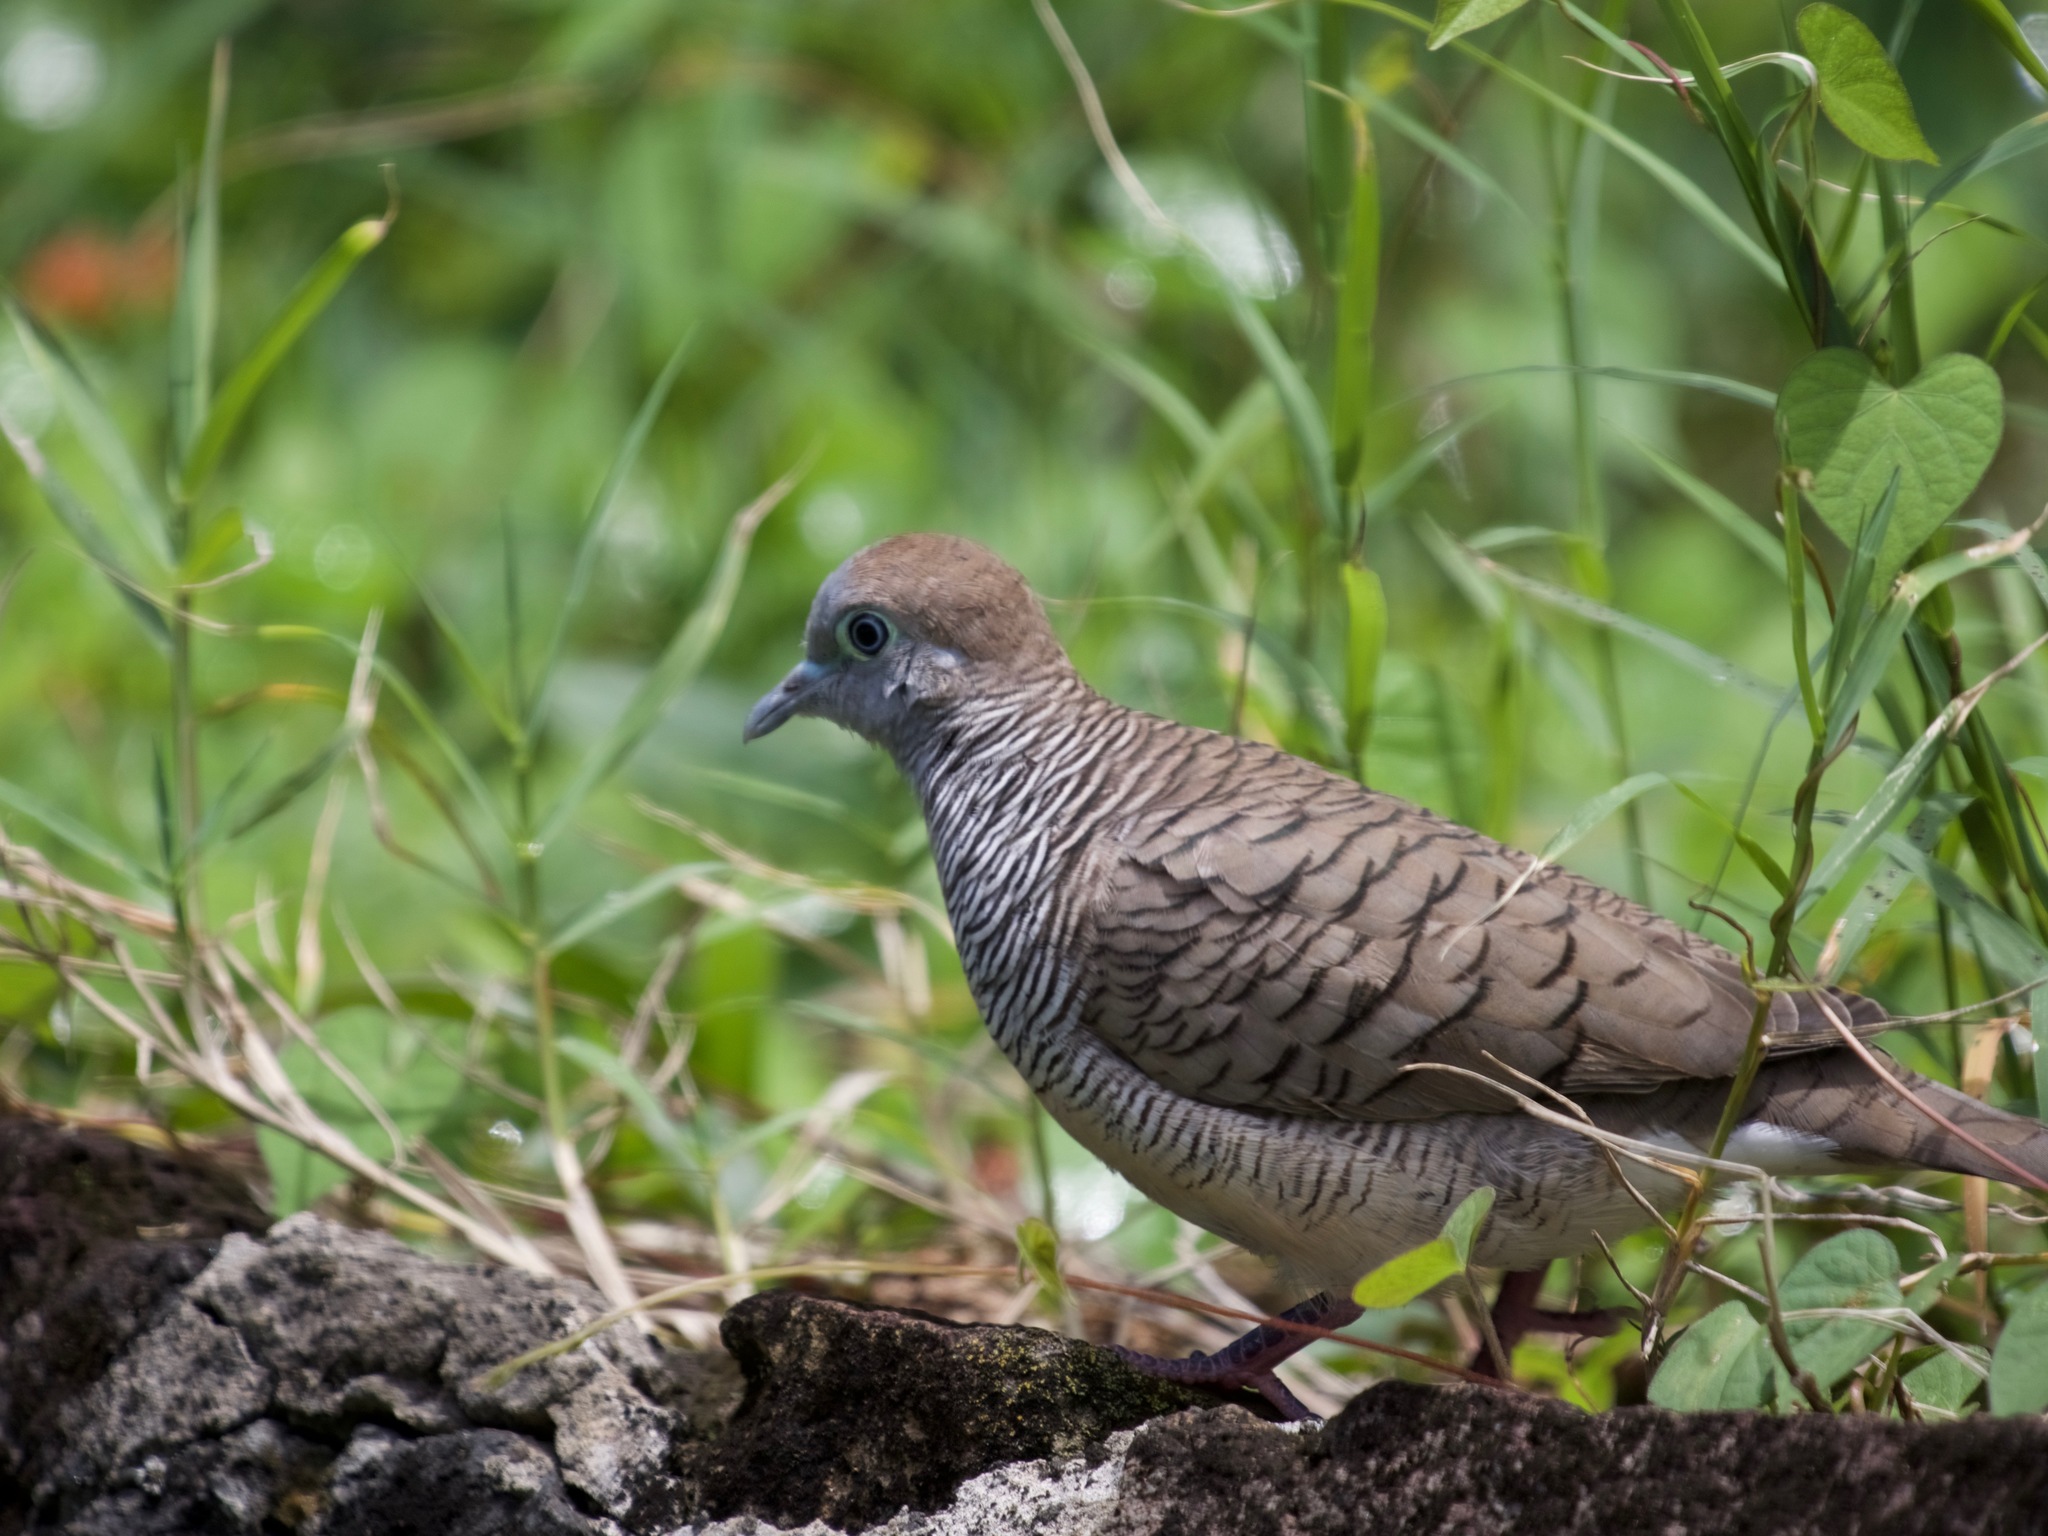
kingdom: Animalia
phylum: Chordata
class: Aves
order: Columbiformes
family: Columbidae
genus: Geopelia
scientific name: Geopelia striata
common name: Zebra dove
